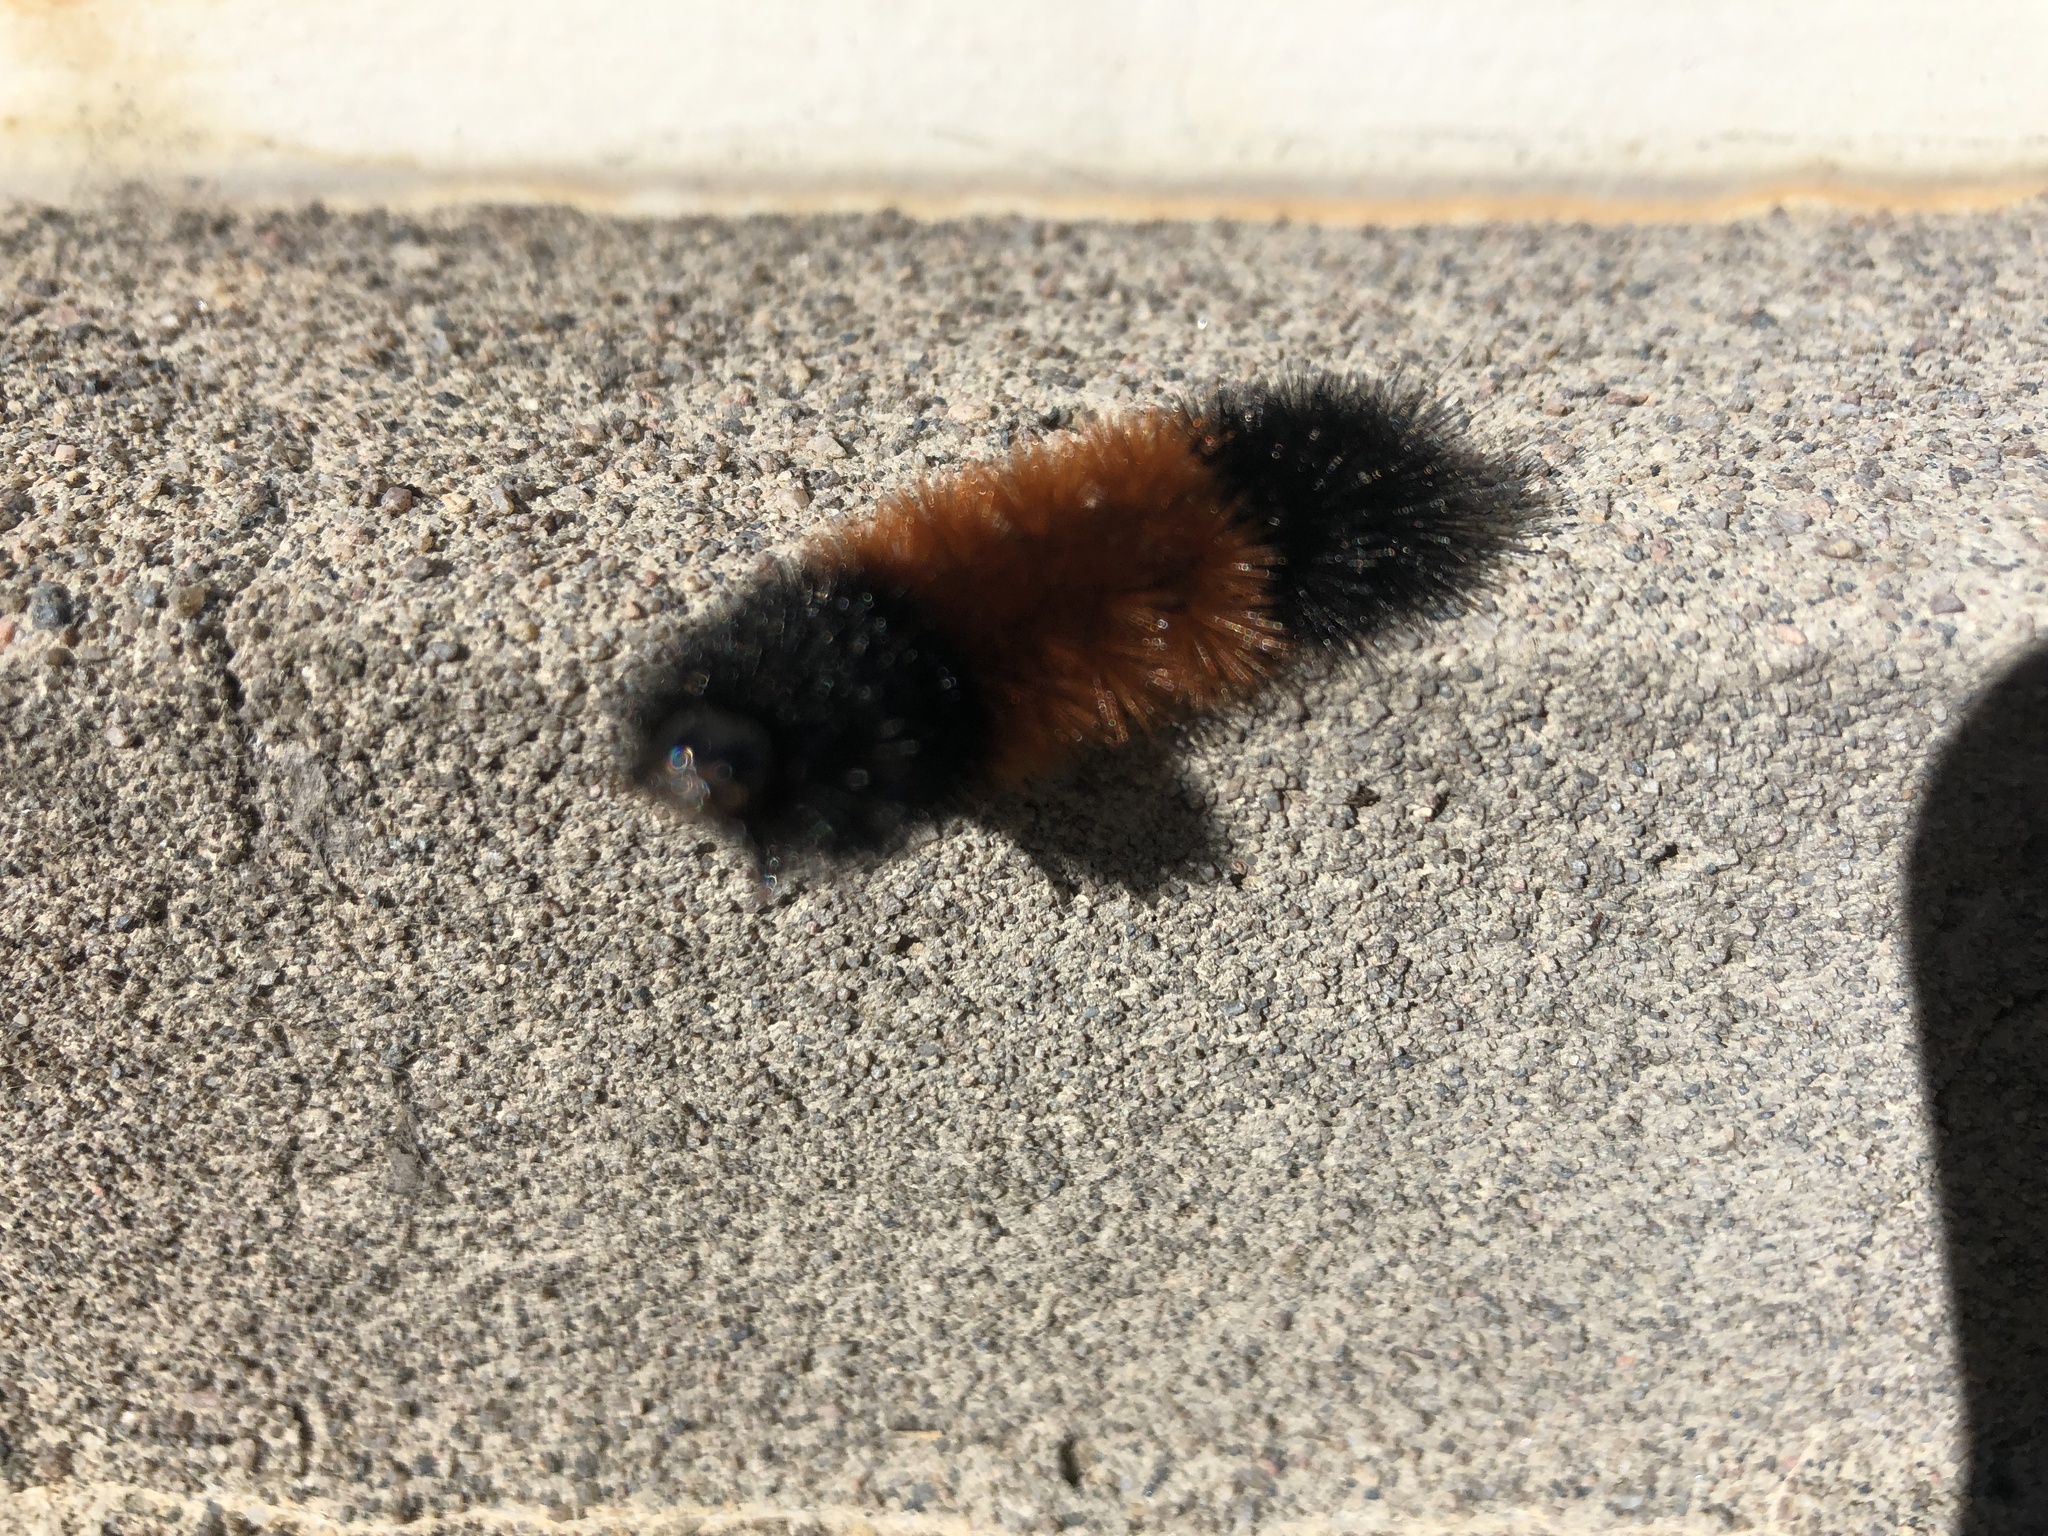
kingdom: Animalia
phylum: Arthropoda
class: Insecta
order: Lepidoptera
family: Erebidae
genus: Pyrrharctia
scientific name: Pyrrharctia isabella
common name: Isabella tiger moth
